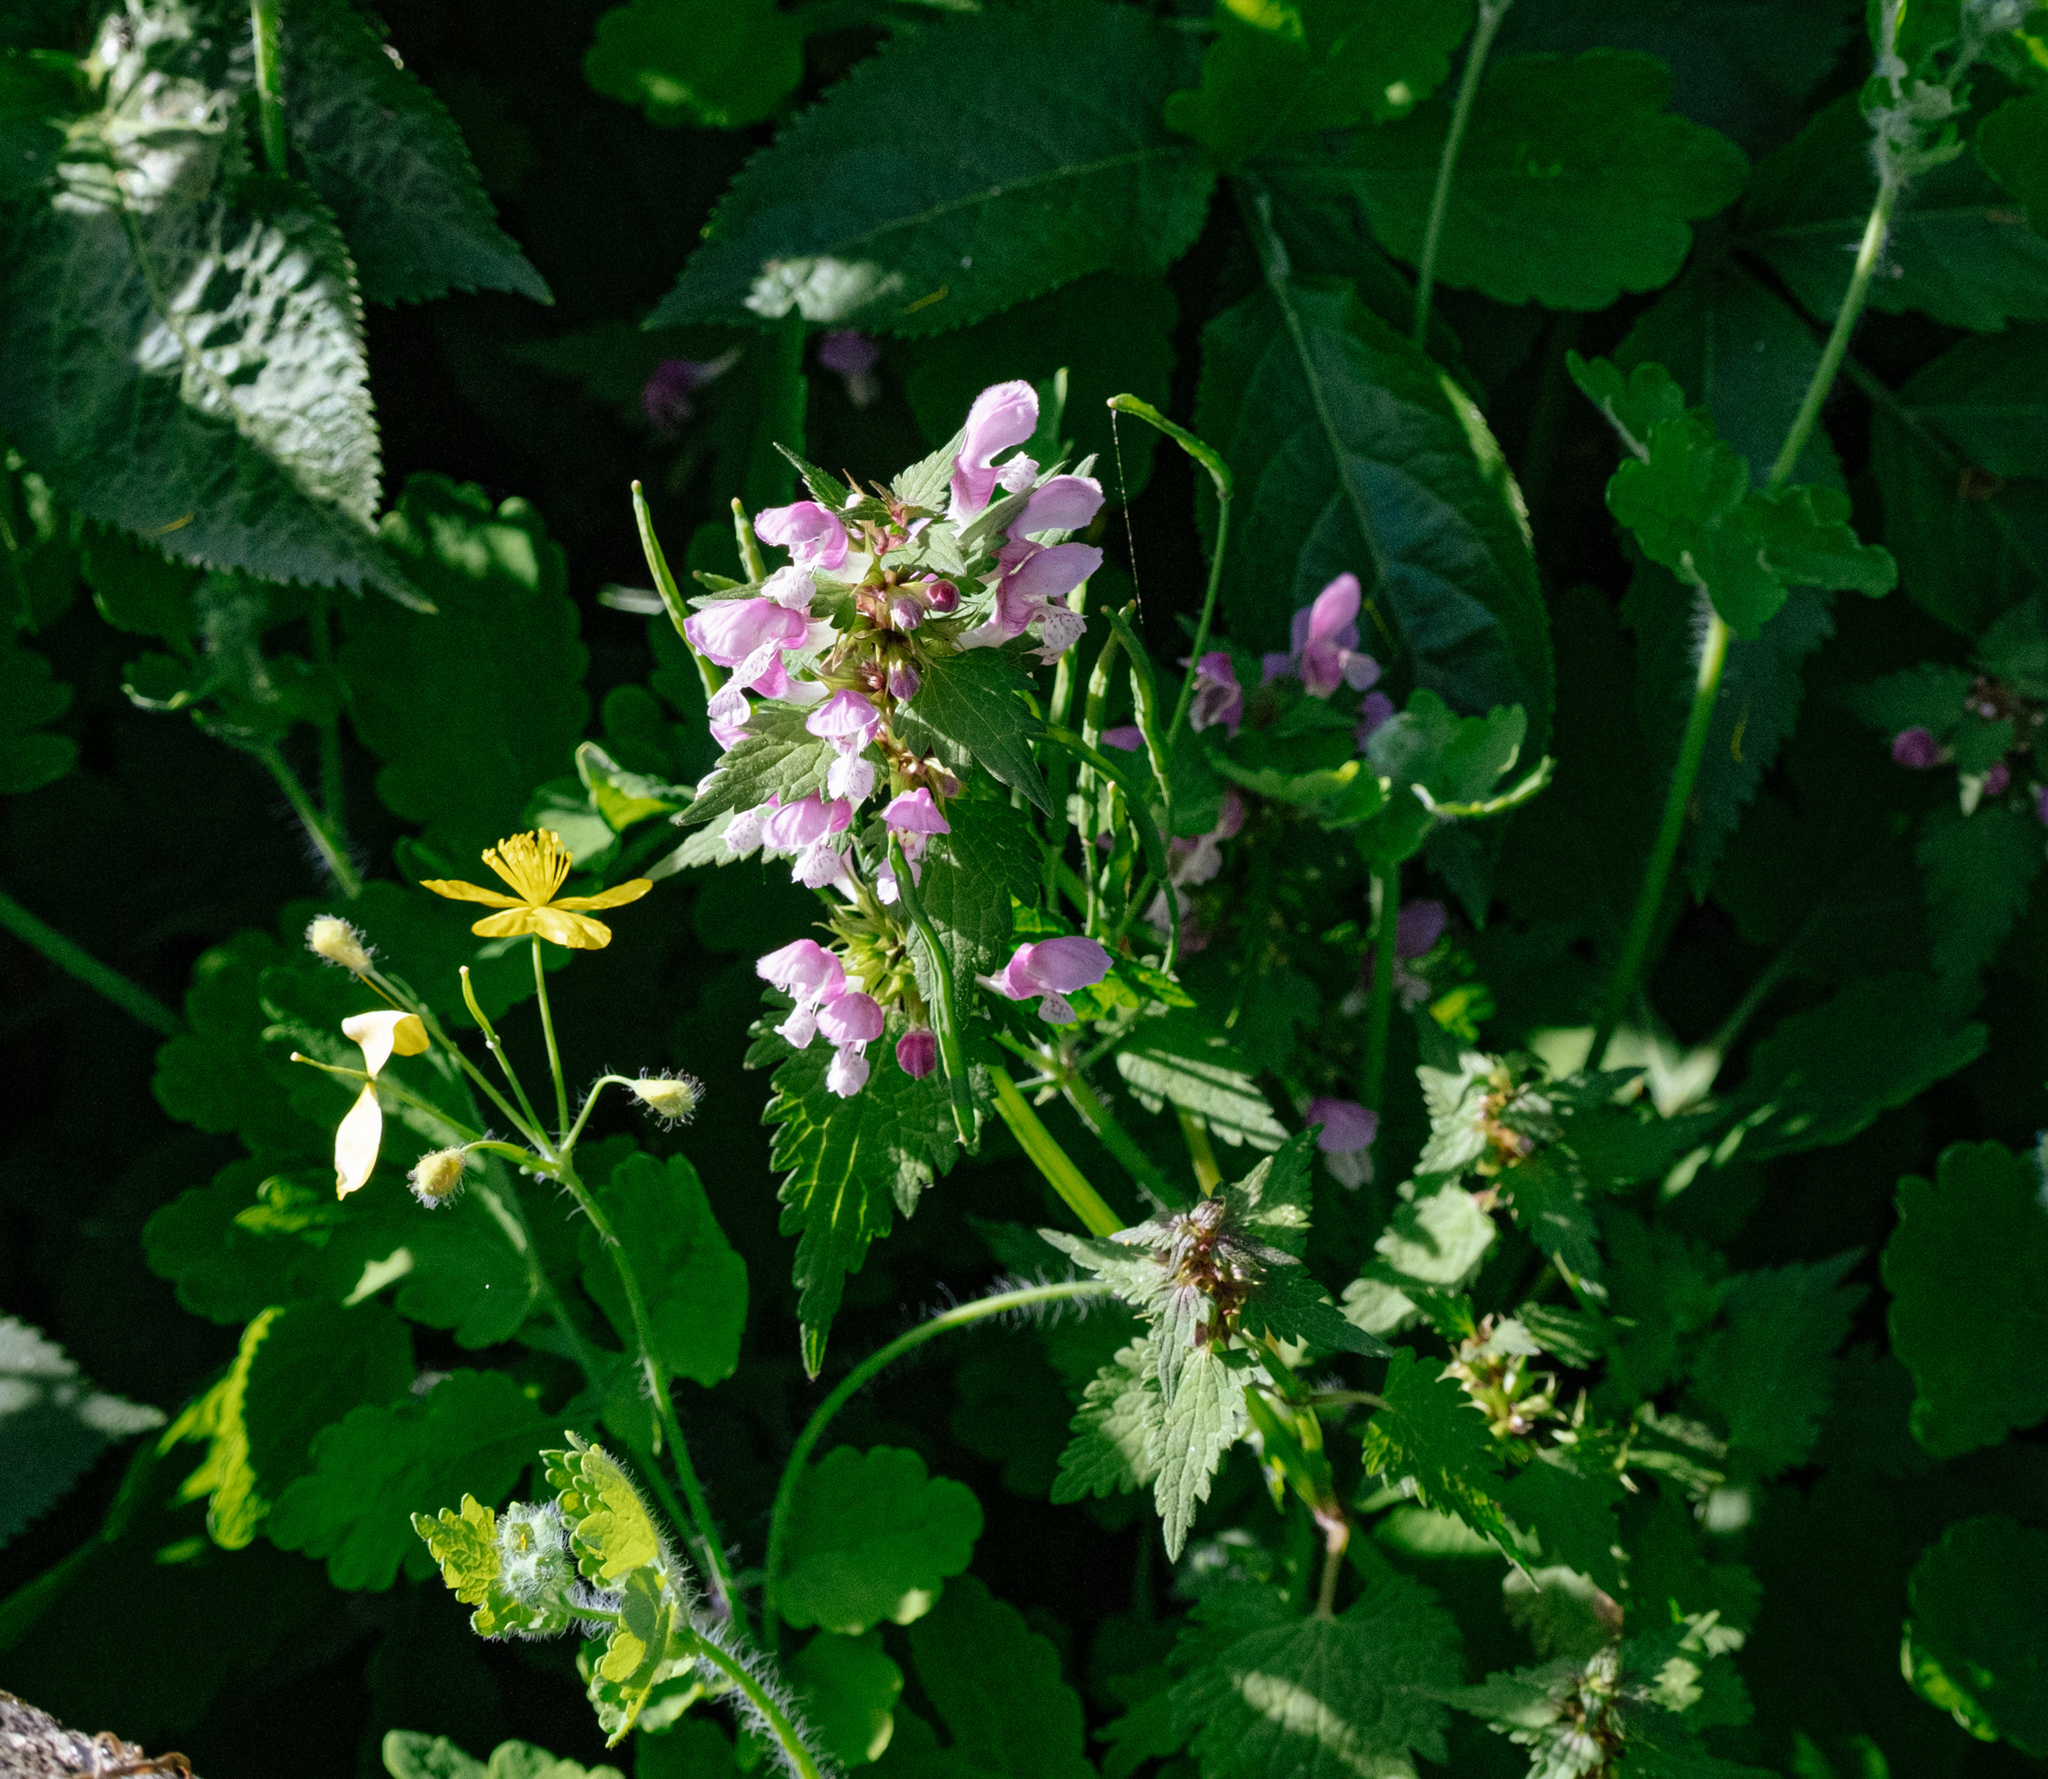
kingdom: Plantae
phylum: Tracheophyta
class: Magnoliopsida
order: Lamiales
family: Lamiaceae
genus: Lamium
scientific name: Lamium maculatum
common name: Spotted dead-nettle
